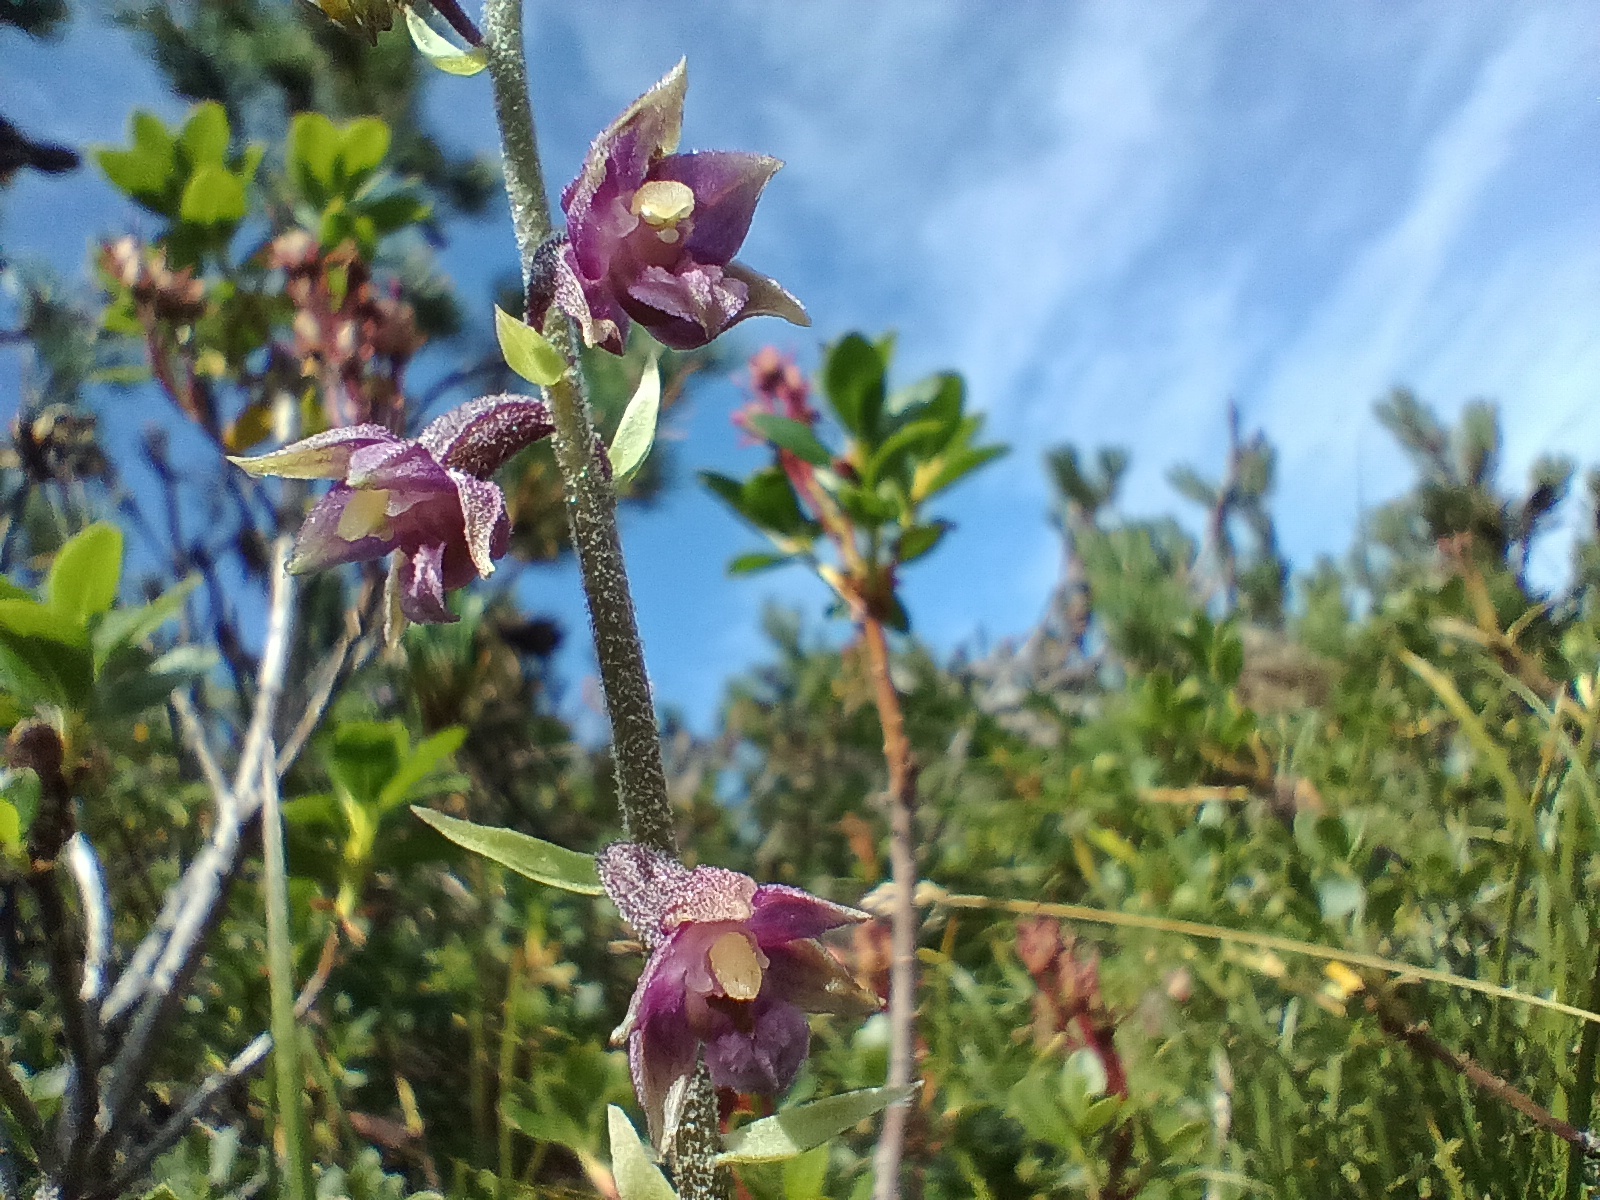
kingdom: Plantae
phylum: Tracheophyta
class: Liliopsida
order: Asparagales
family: Orchidaceae
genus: Epipactis
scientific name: Epipactis atrorubens
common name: Dark-red helleborine
